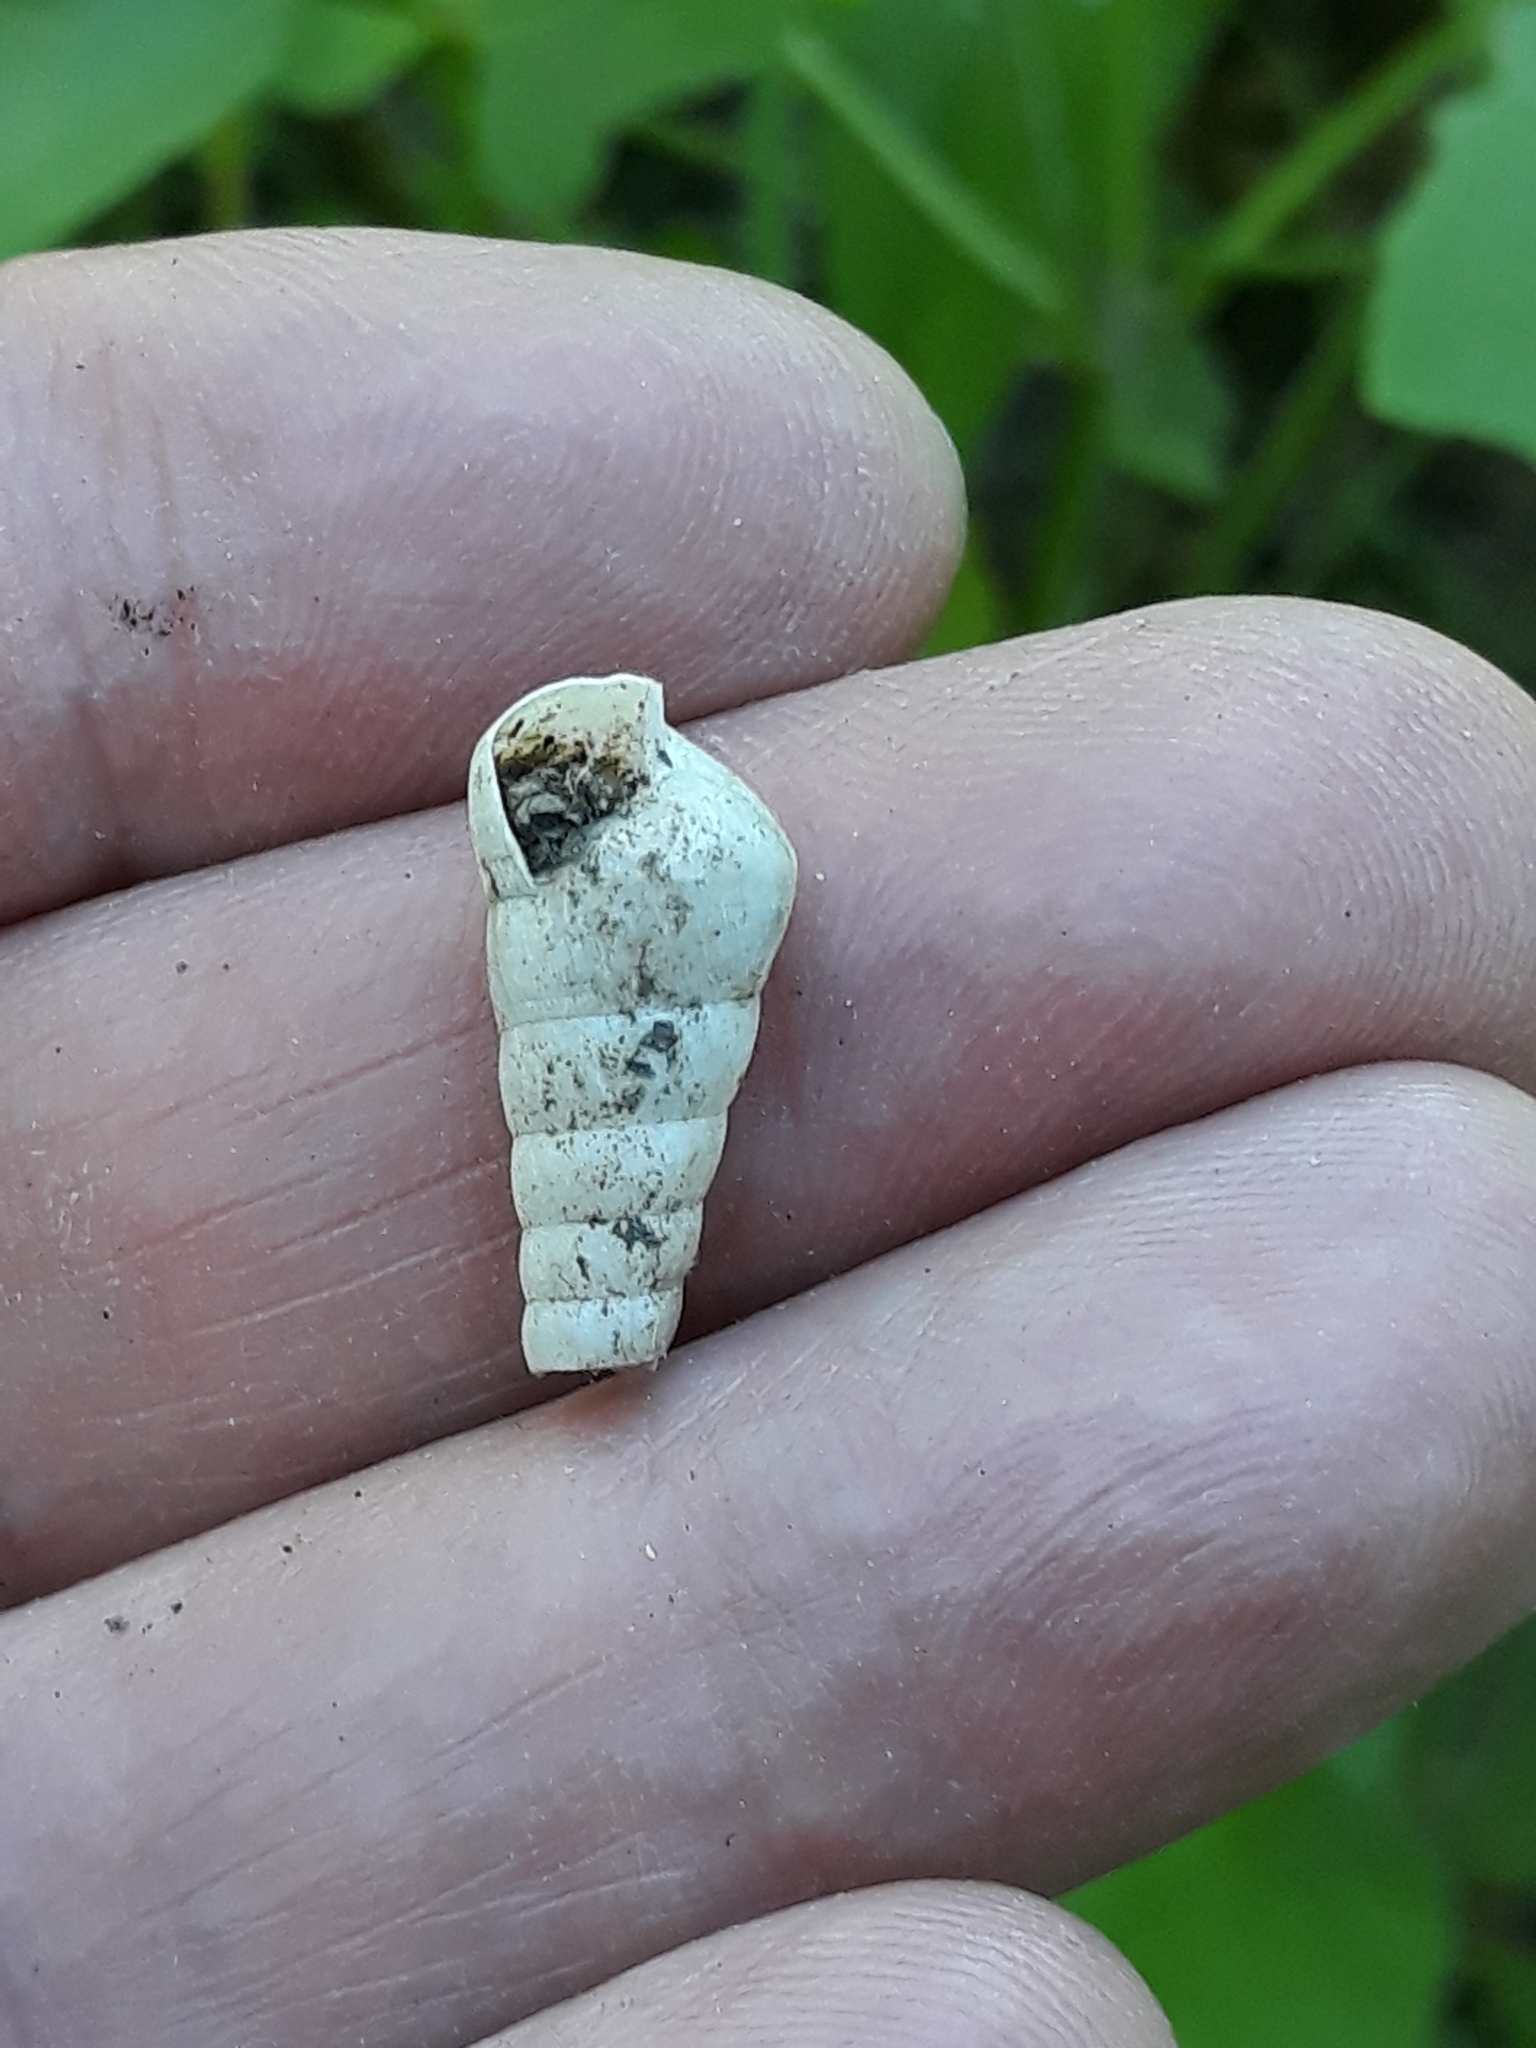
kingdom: Animalia
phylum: Mollusca
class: Gastropoda
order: Stylommatophora
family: Achatinidae
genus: Rumina
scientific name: Rumina decollata
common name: Decollate snail
